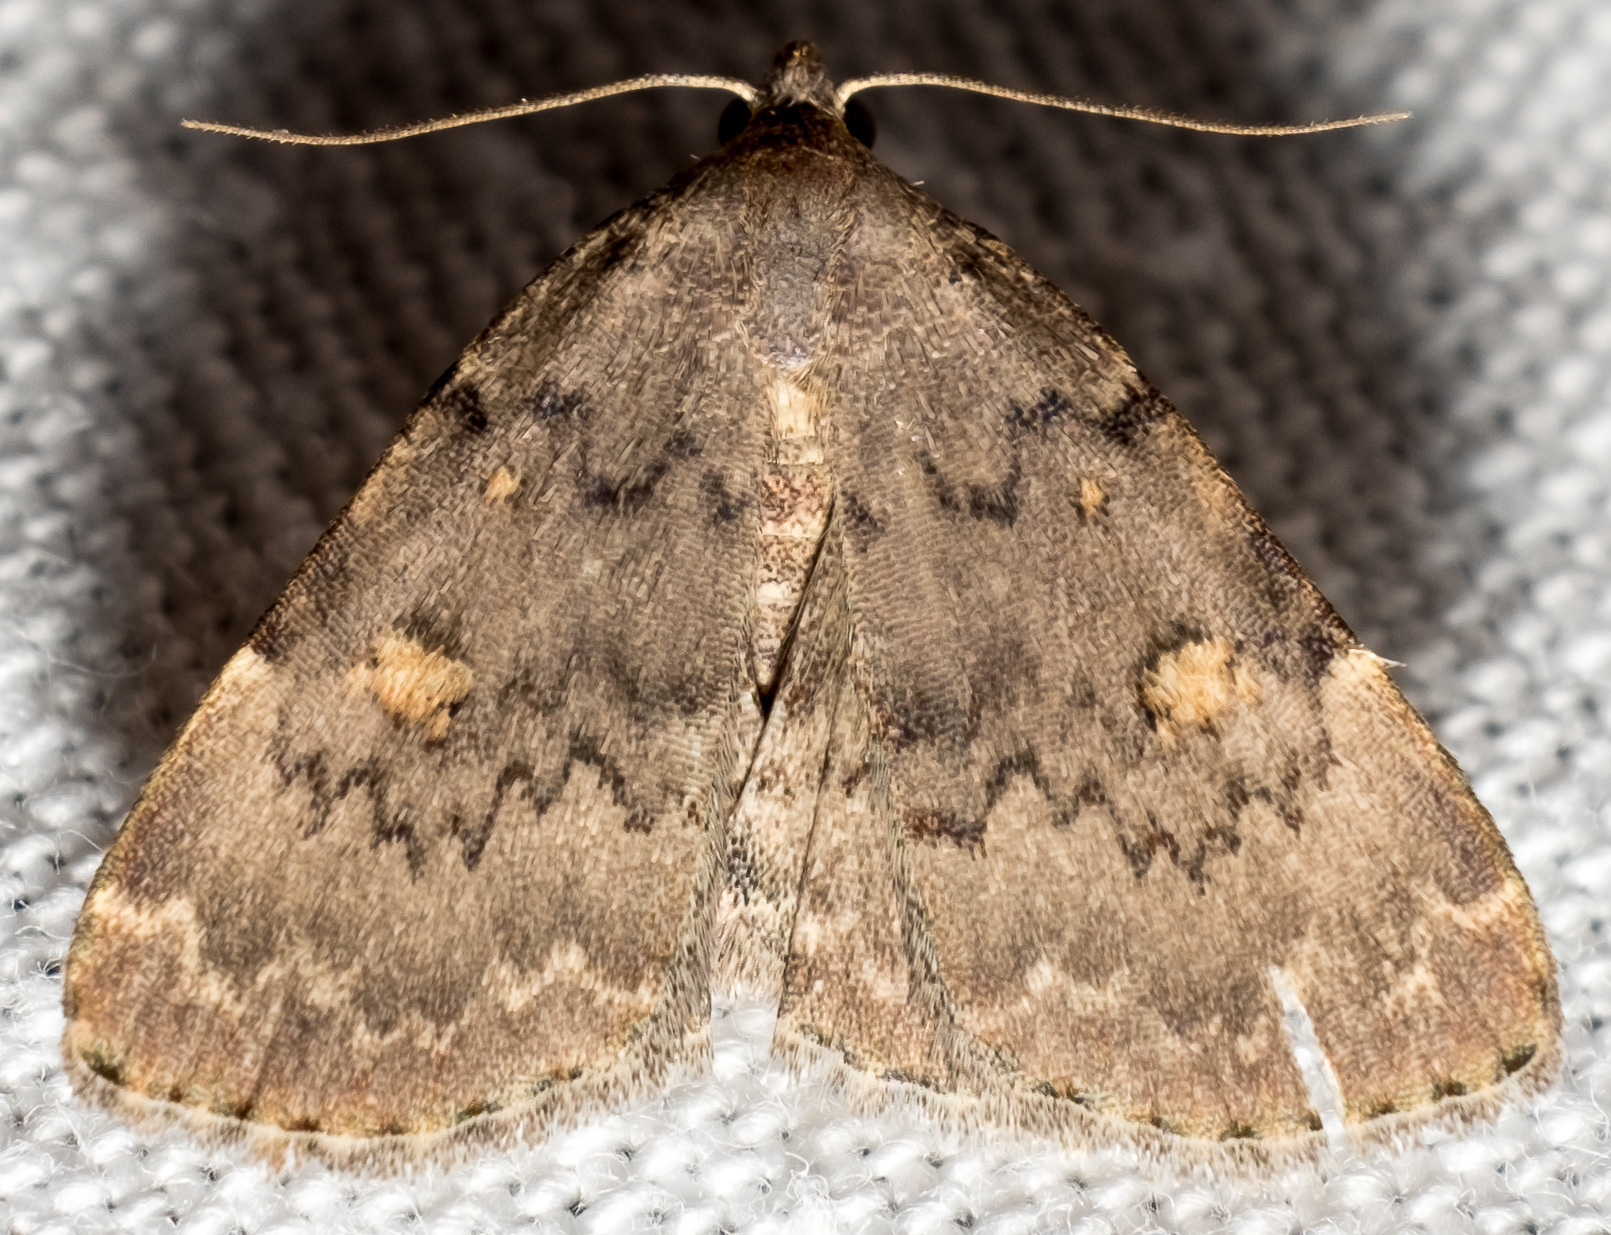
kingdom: Animalia
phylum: Arthropoda
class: Insecta
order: Lepidoptera
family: Erebidae
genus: Idia
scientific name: Idia aemula
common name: Common idia moth
